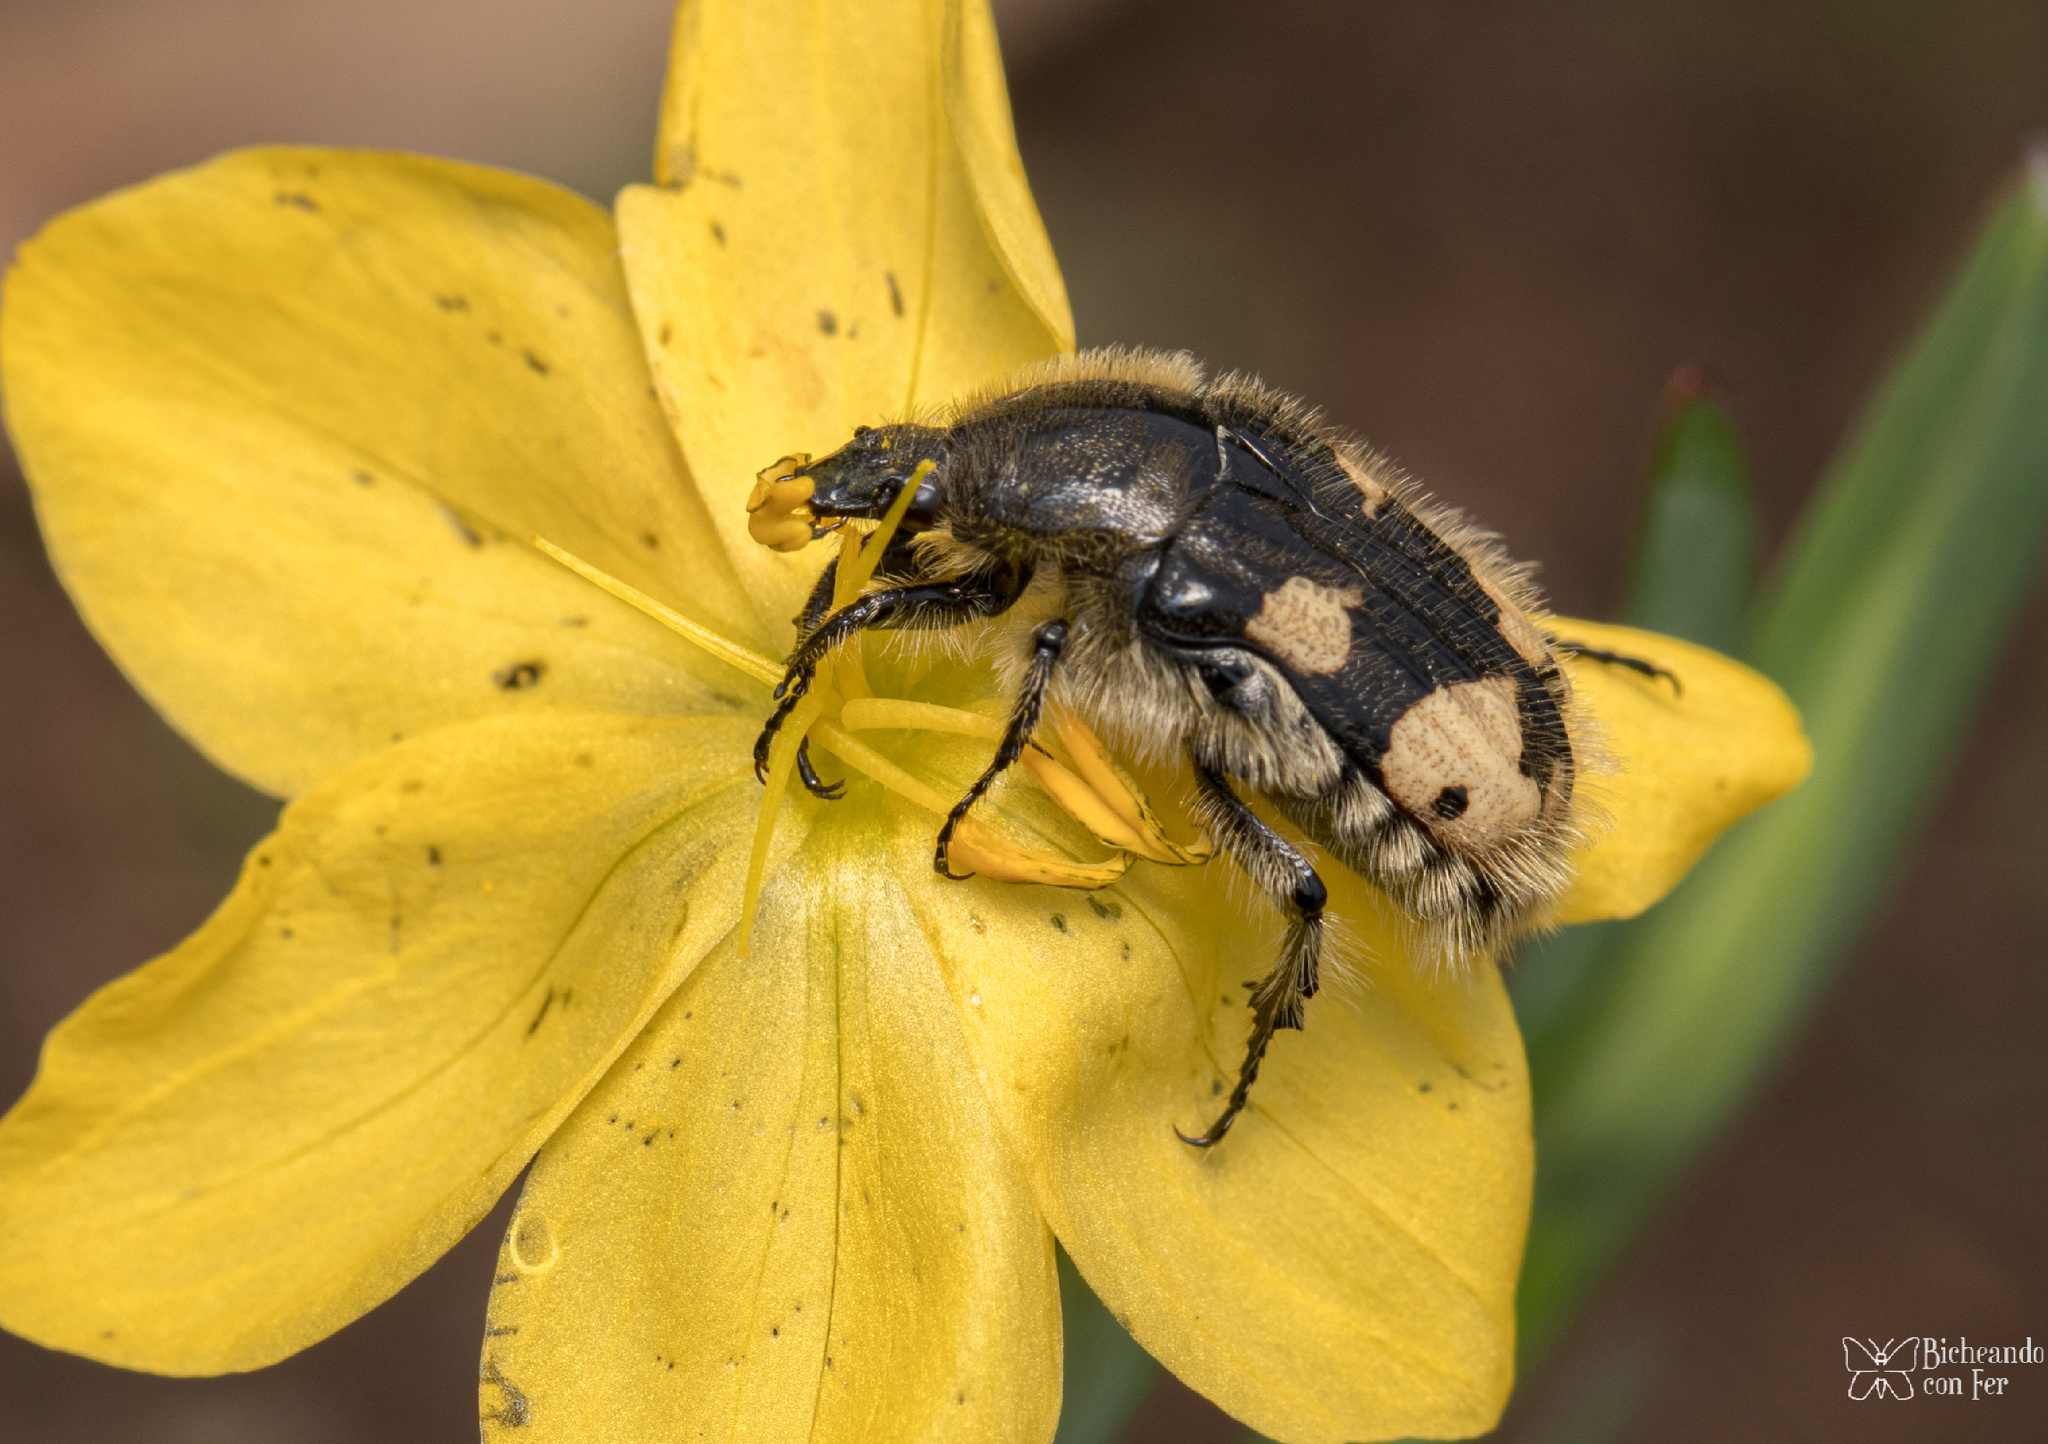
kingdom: Animalia
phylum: Arthropoda
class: Insecta
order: Coleoptera
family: Scarabaeidae
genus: Euphoria
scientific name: Euphoria basalis
